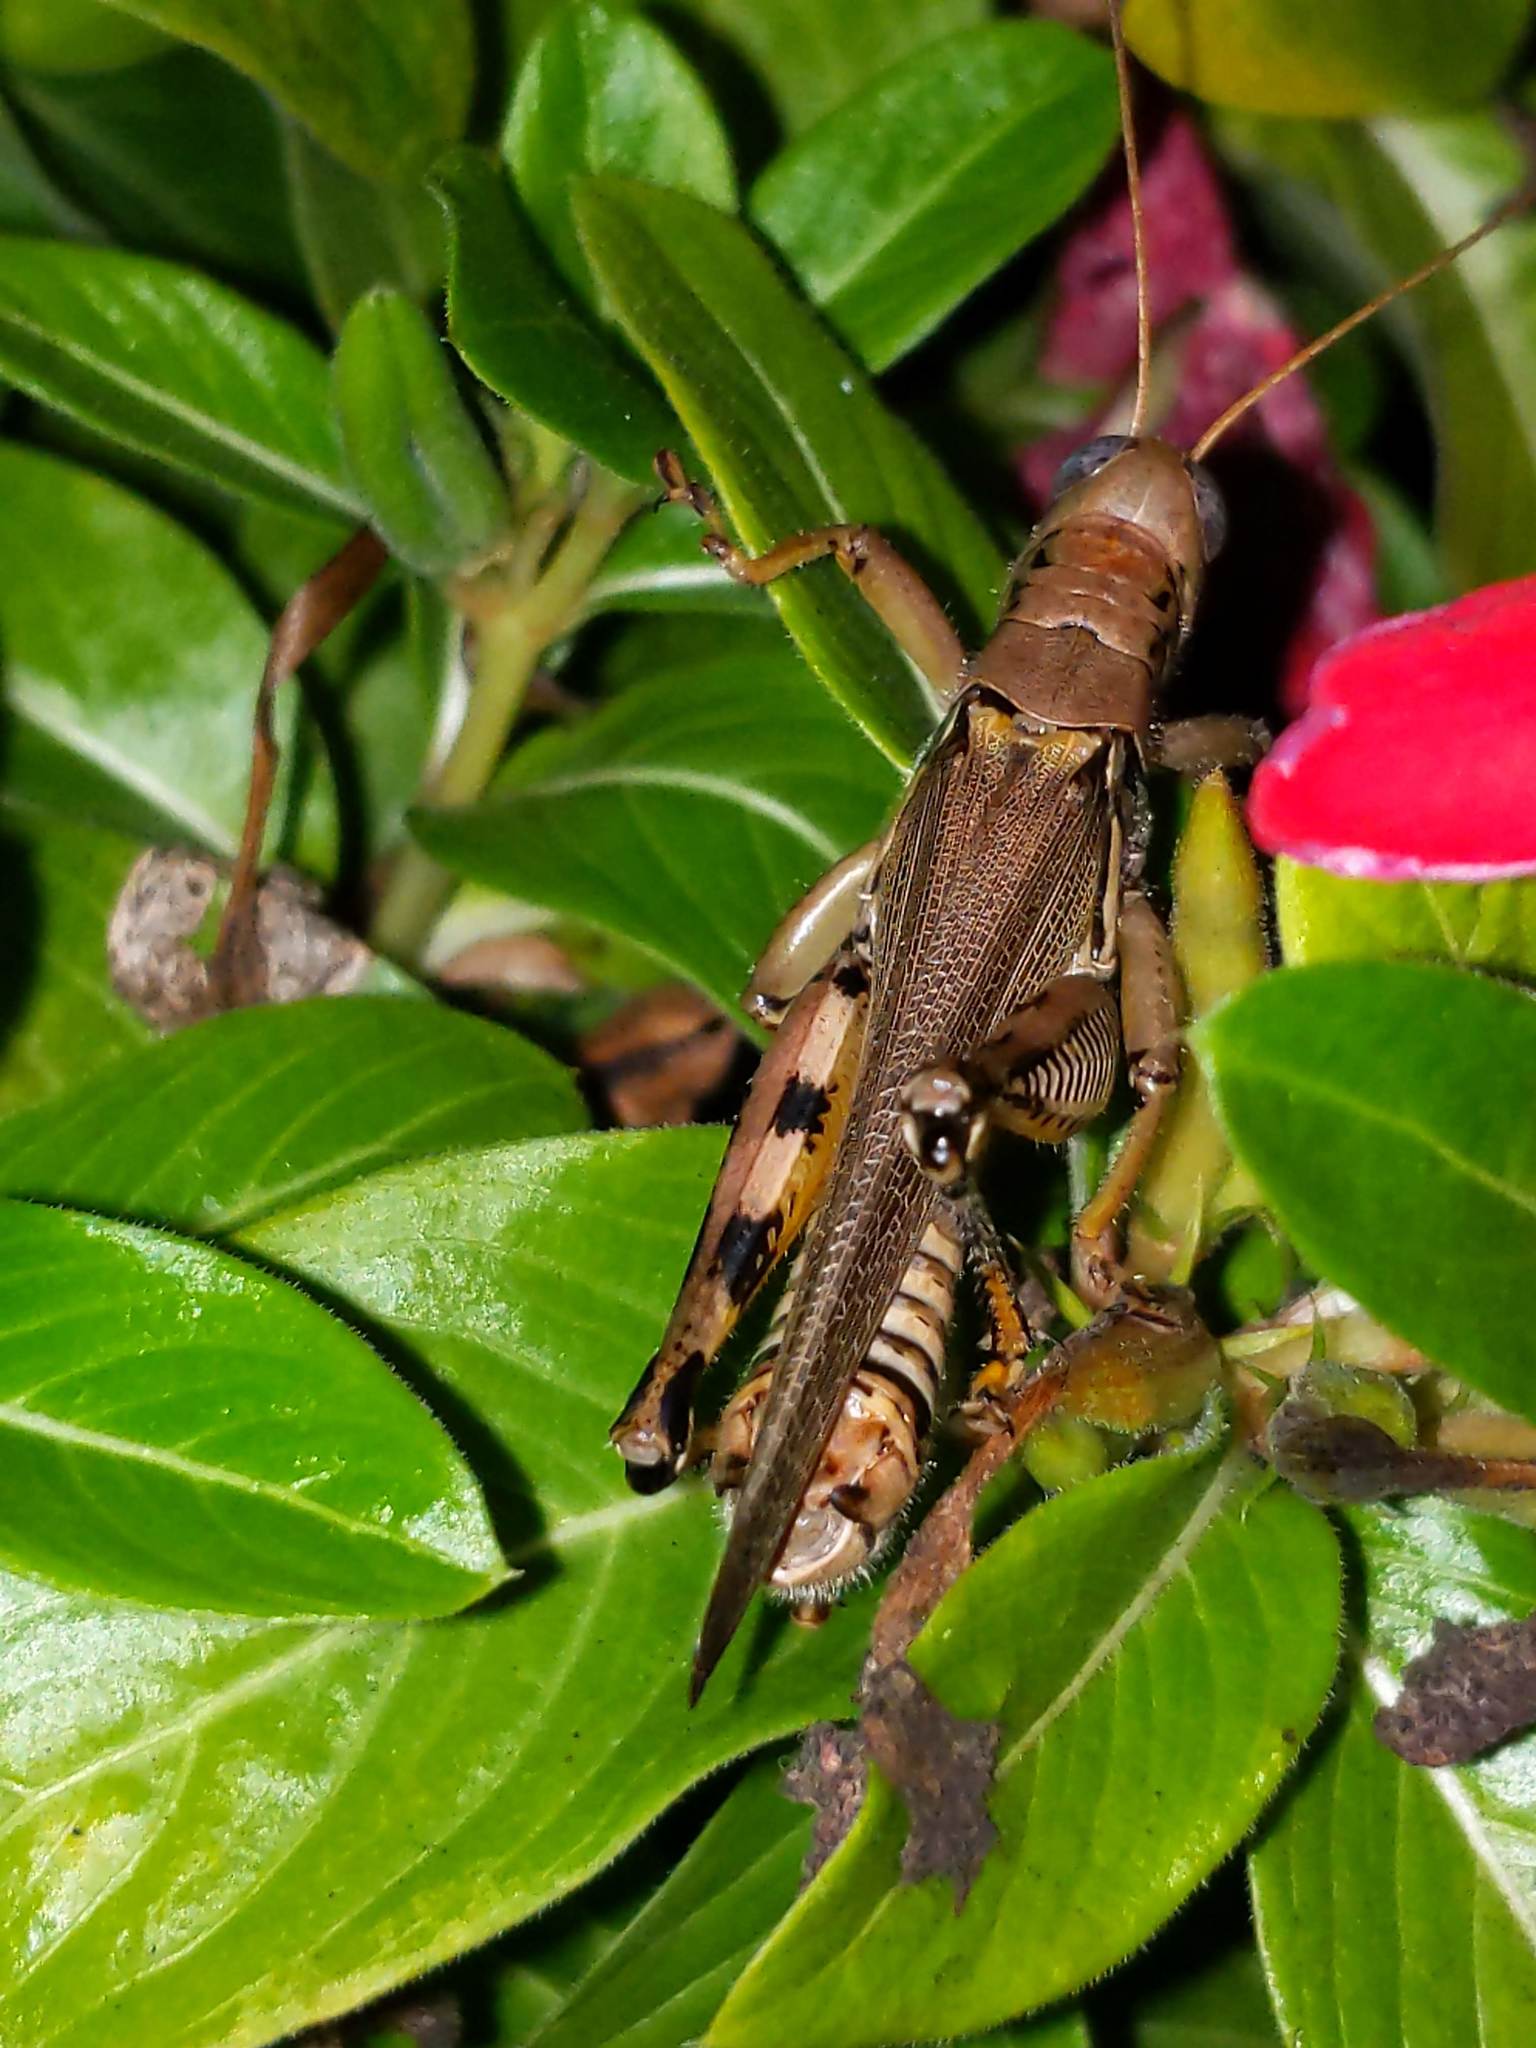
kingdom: Animalia
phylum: Arthropoda
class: Insecta
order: Orthoptera
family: Acrididae
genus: Melanoplus
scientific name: Melanoplus differentialis
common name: Differential grasshopper
